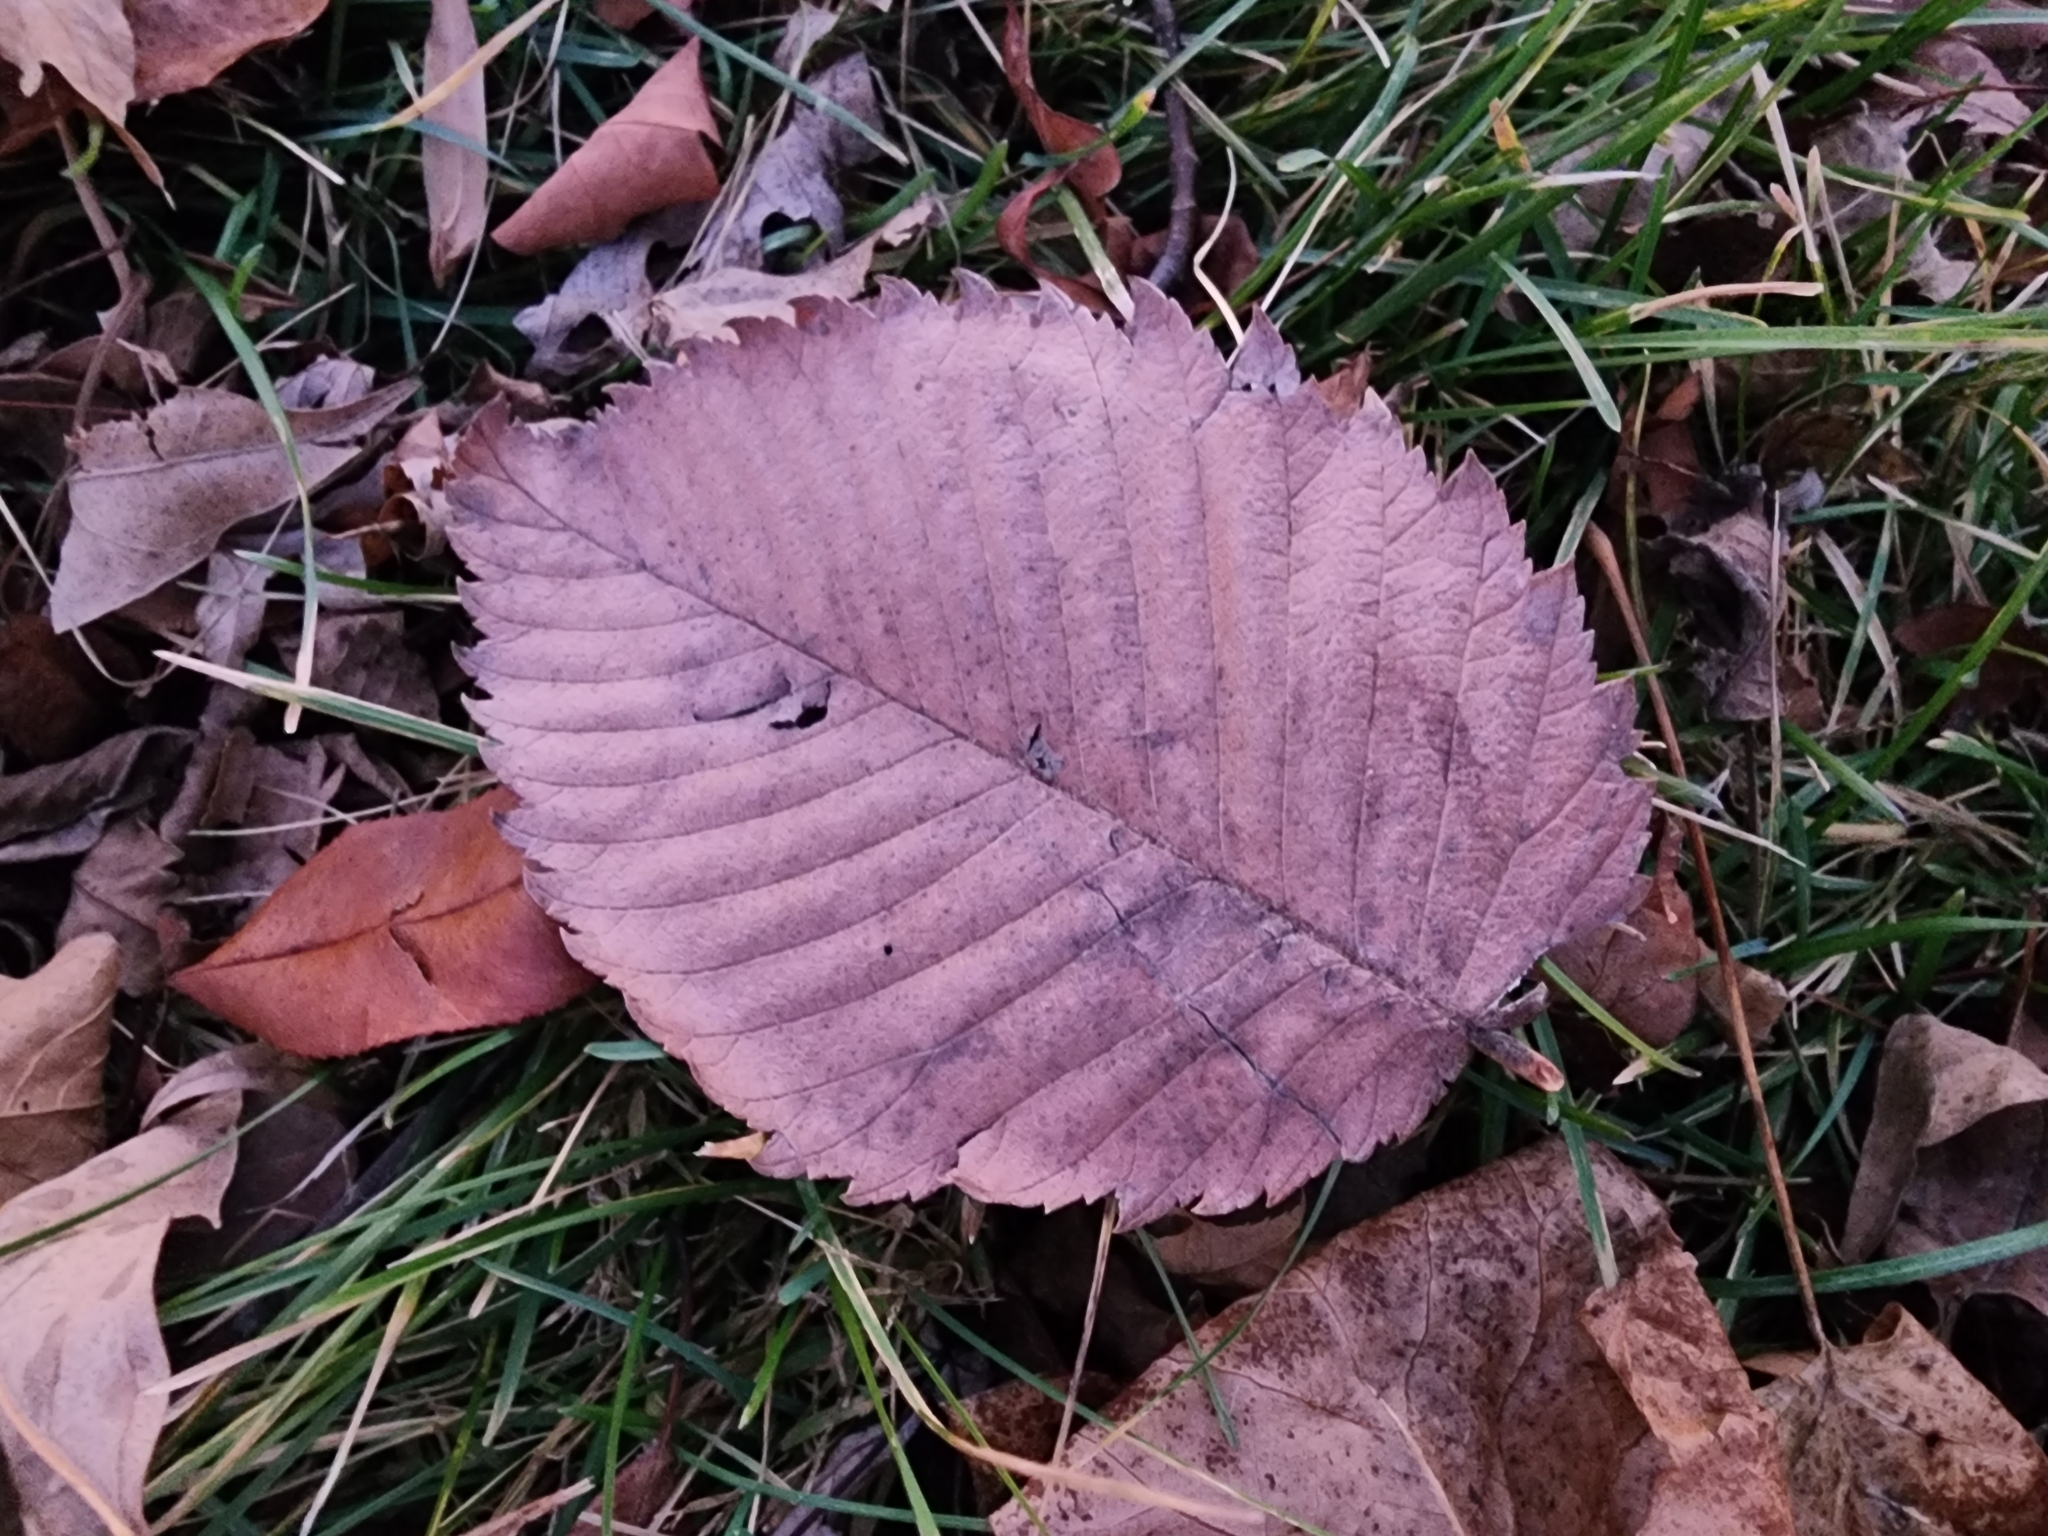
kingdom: Plantae
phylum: Tracheophyta
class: Magnoliopsida
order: Rosales
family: Ulmaceae
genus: Ulmus
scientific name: Ulmus rubra
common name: Slippery elm
